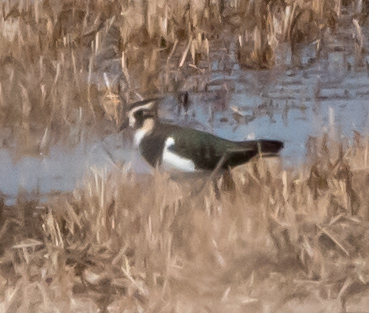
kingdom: Animalia
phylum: Chordata
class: Aves
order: Charadriiformes
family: Charadriidae
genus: Vanellus
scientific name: Vanellus vanellus
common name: Northern lapwing
